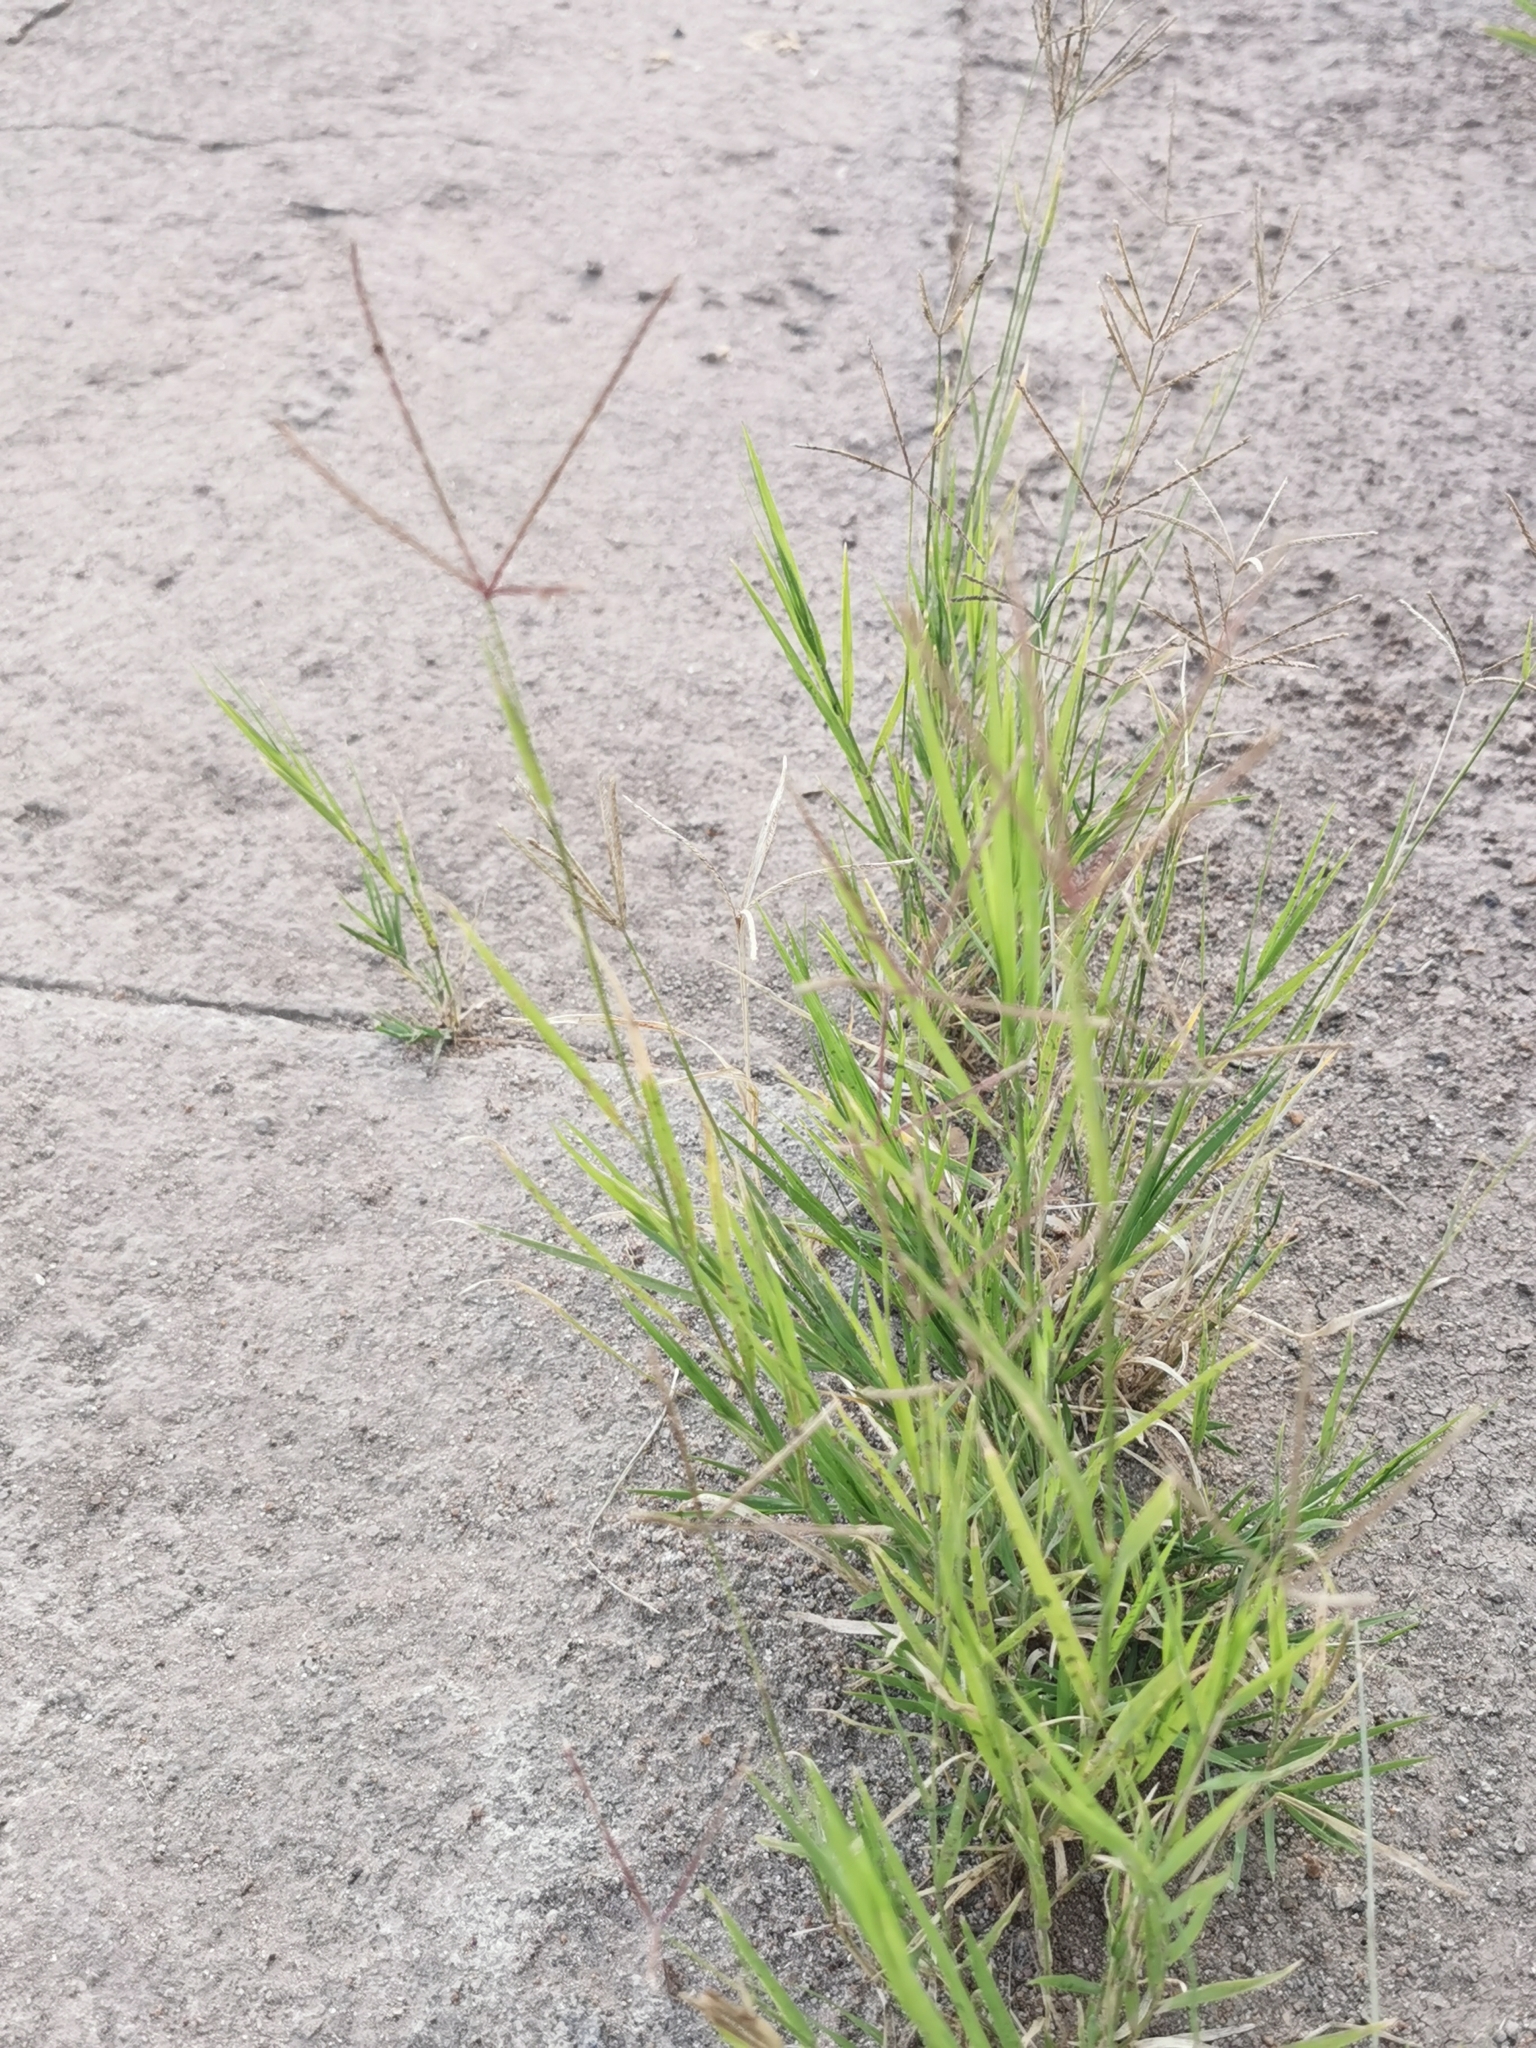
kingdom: Plantae
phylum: Tracheophyta
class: Liliopsida
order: Poales
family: Poaceae
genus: Cynodon
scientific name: Cynodon dactylon
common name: Bermuda grass
